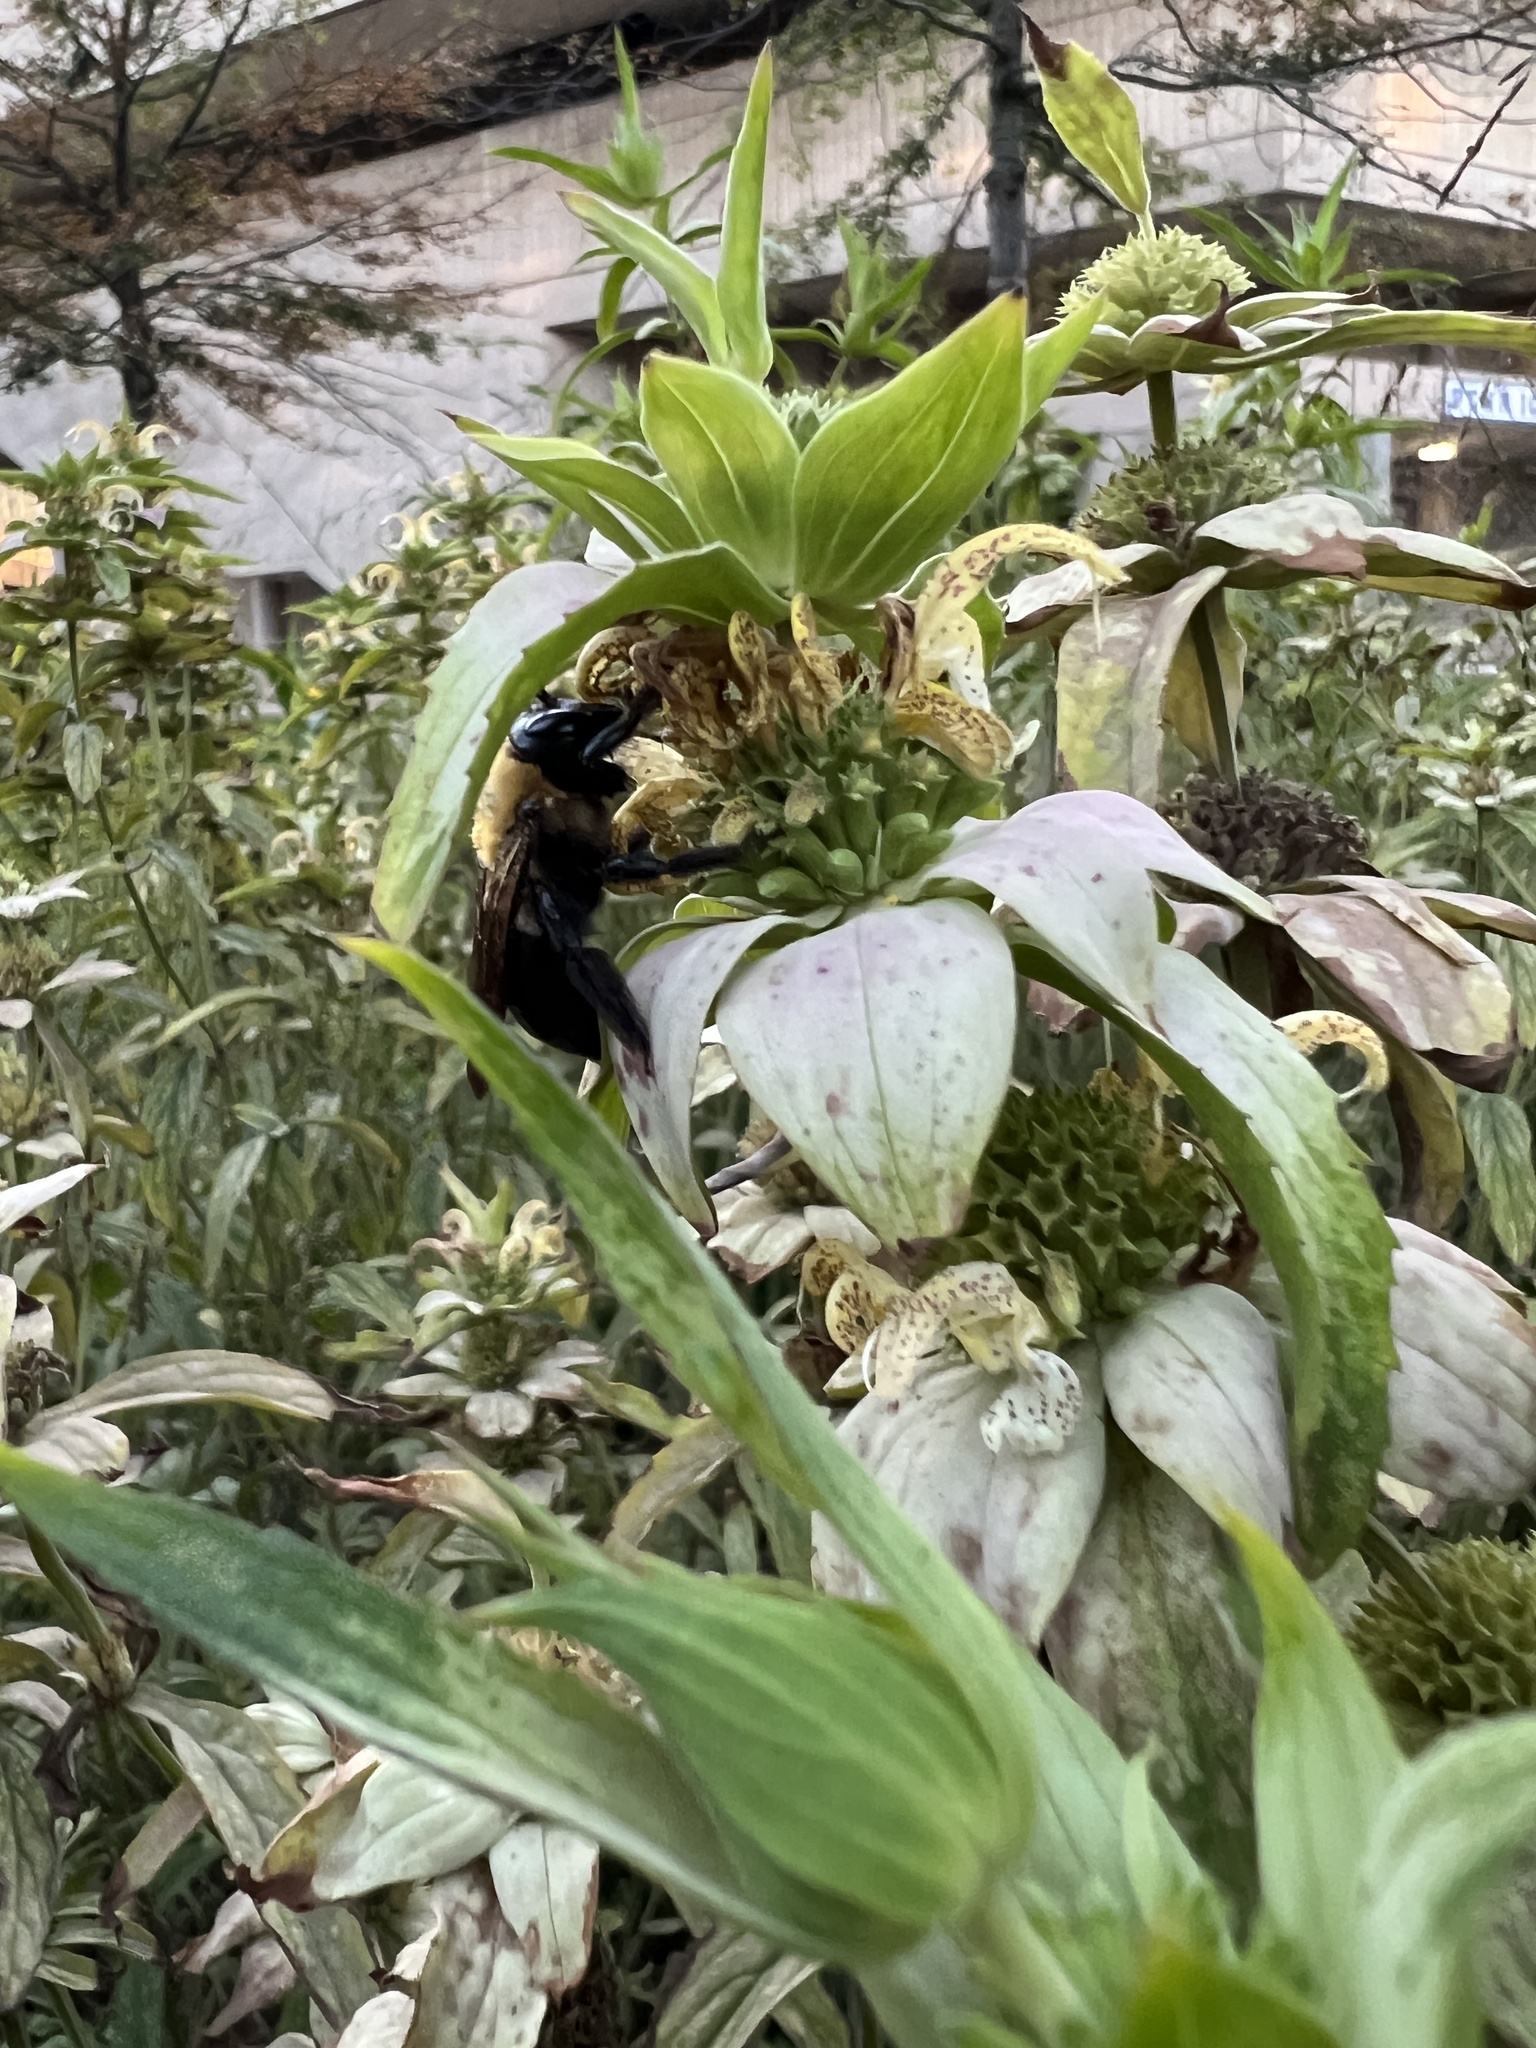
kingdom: Animalia
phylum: Arthropoda
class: Insecta
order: Hymenoptera
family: Apidae
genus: Xylocopa
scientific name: Xylocopa virginica
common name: Carpenter bee
